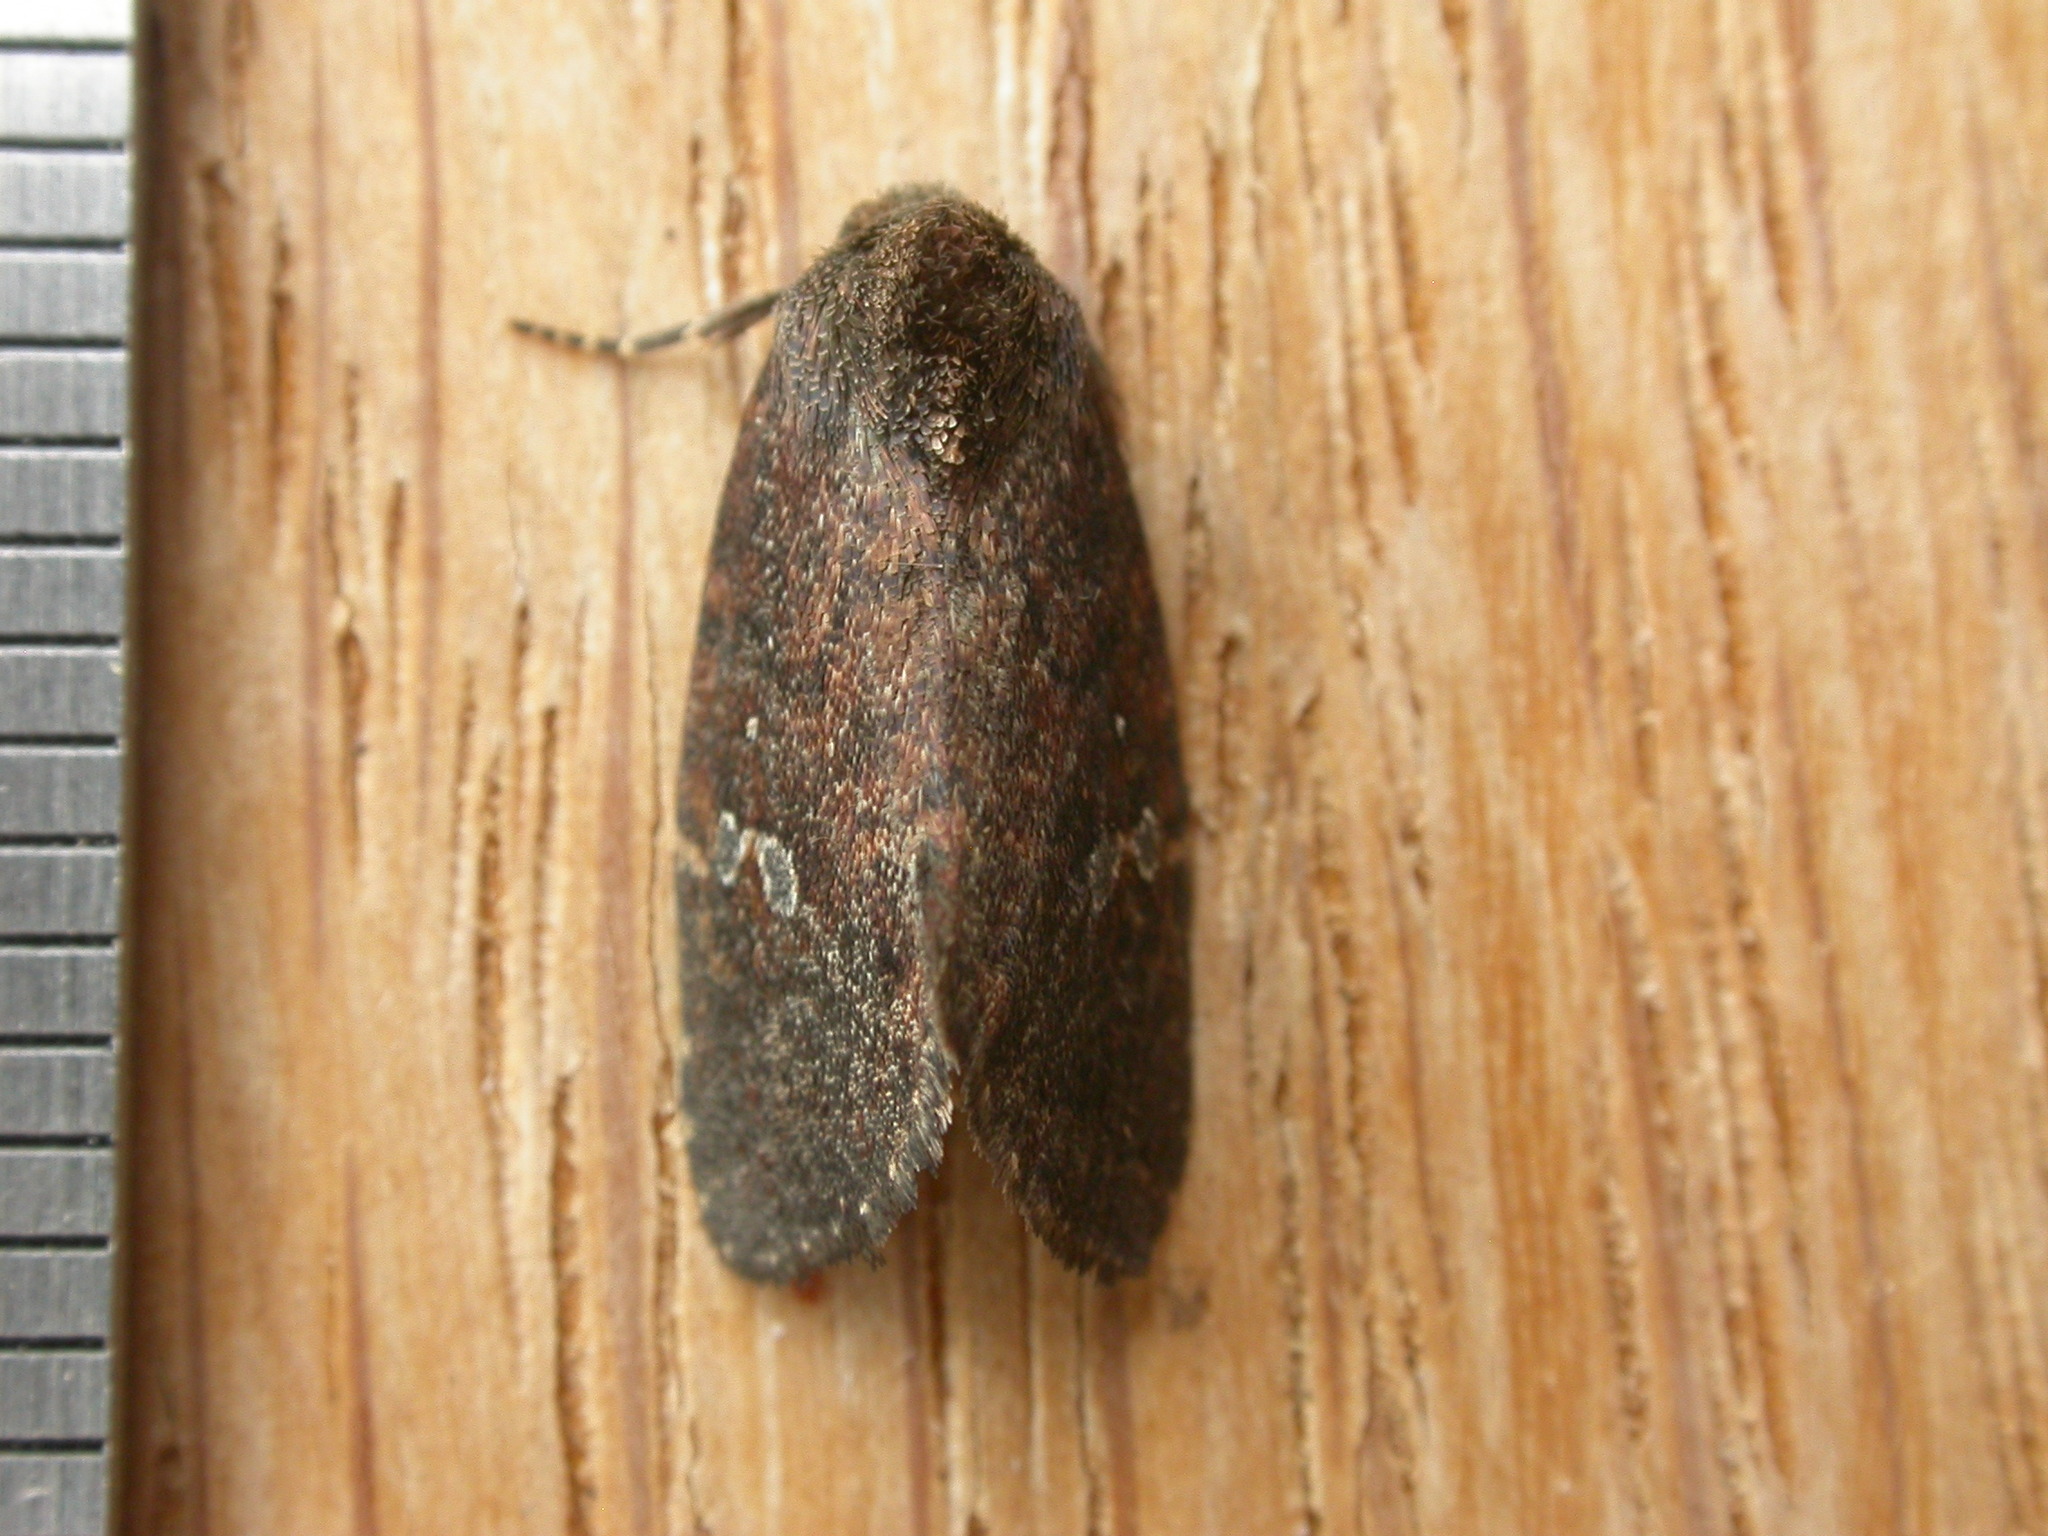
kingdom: Animalia
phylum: Arthropoda
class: Insecta
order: Lepidoptera
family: Noctuidae
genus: Elusa
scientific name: Elusa oenolopha
